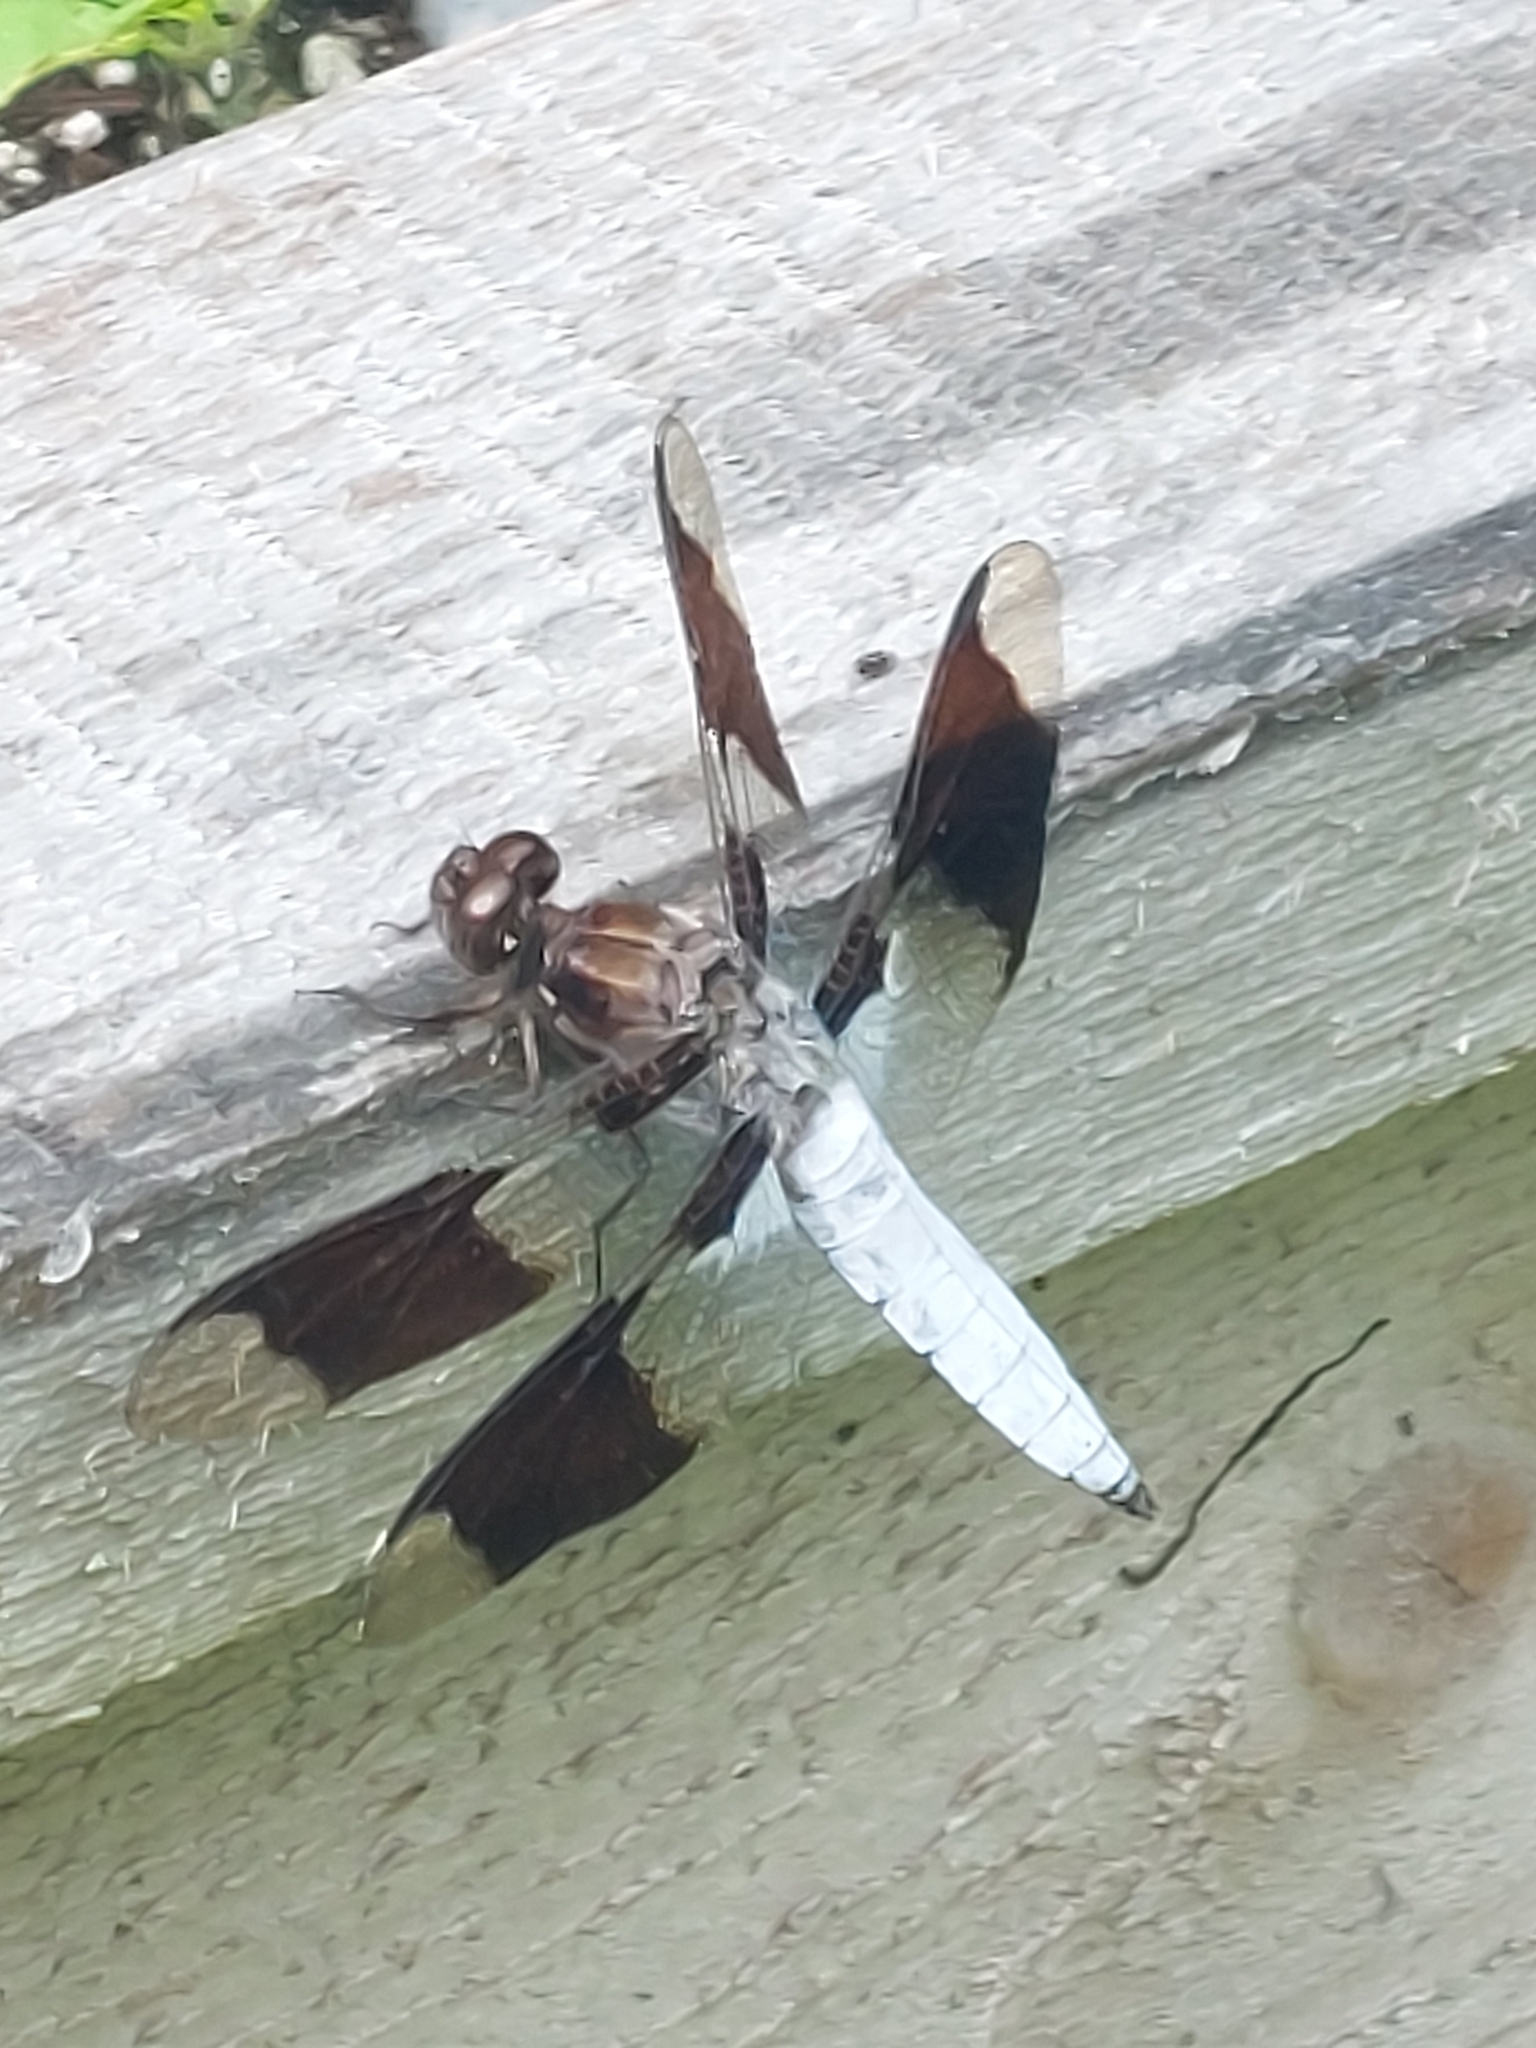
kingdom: Animalia
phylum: Arthropoda
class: Insecta
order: Odonata
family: Libellulidae
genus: Plathemis
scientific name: Plathemis lydia
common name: Common whitetail
